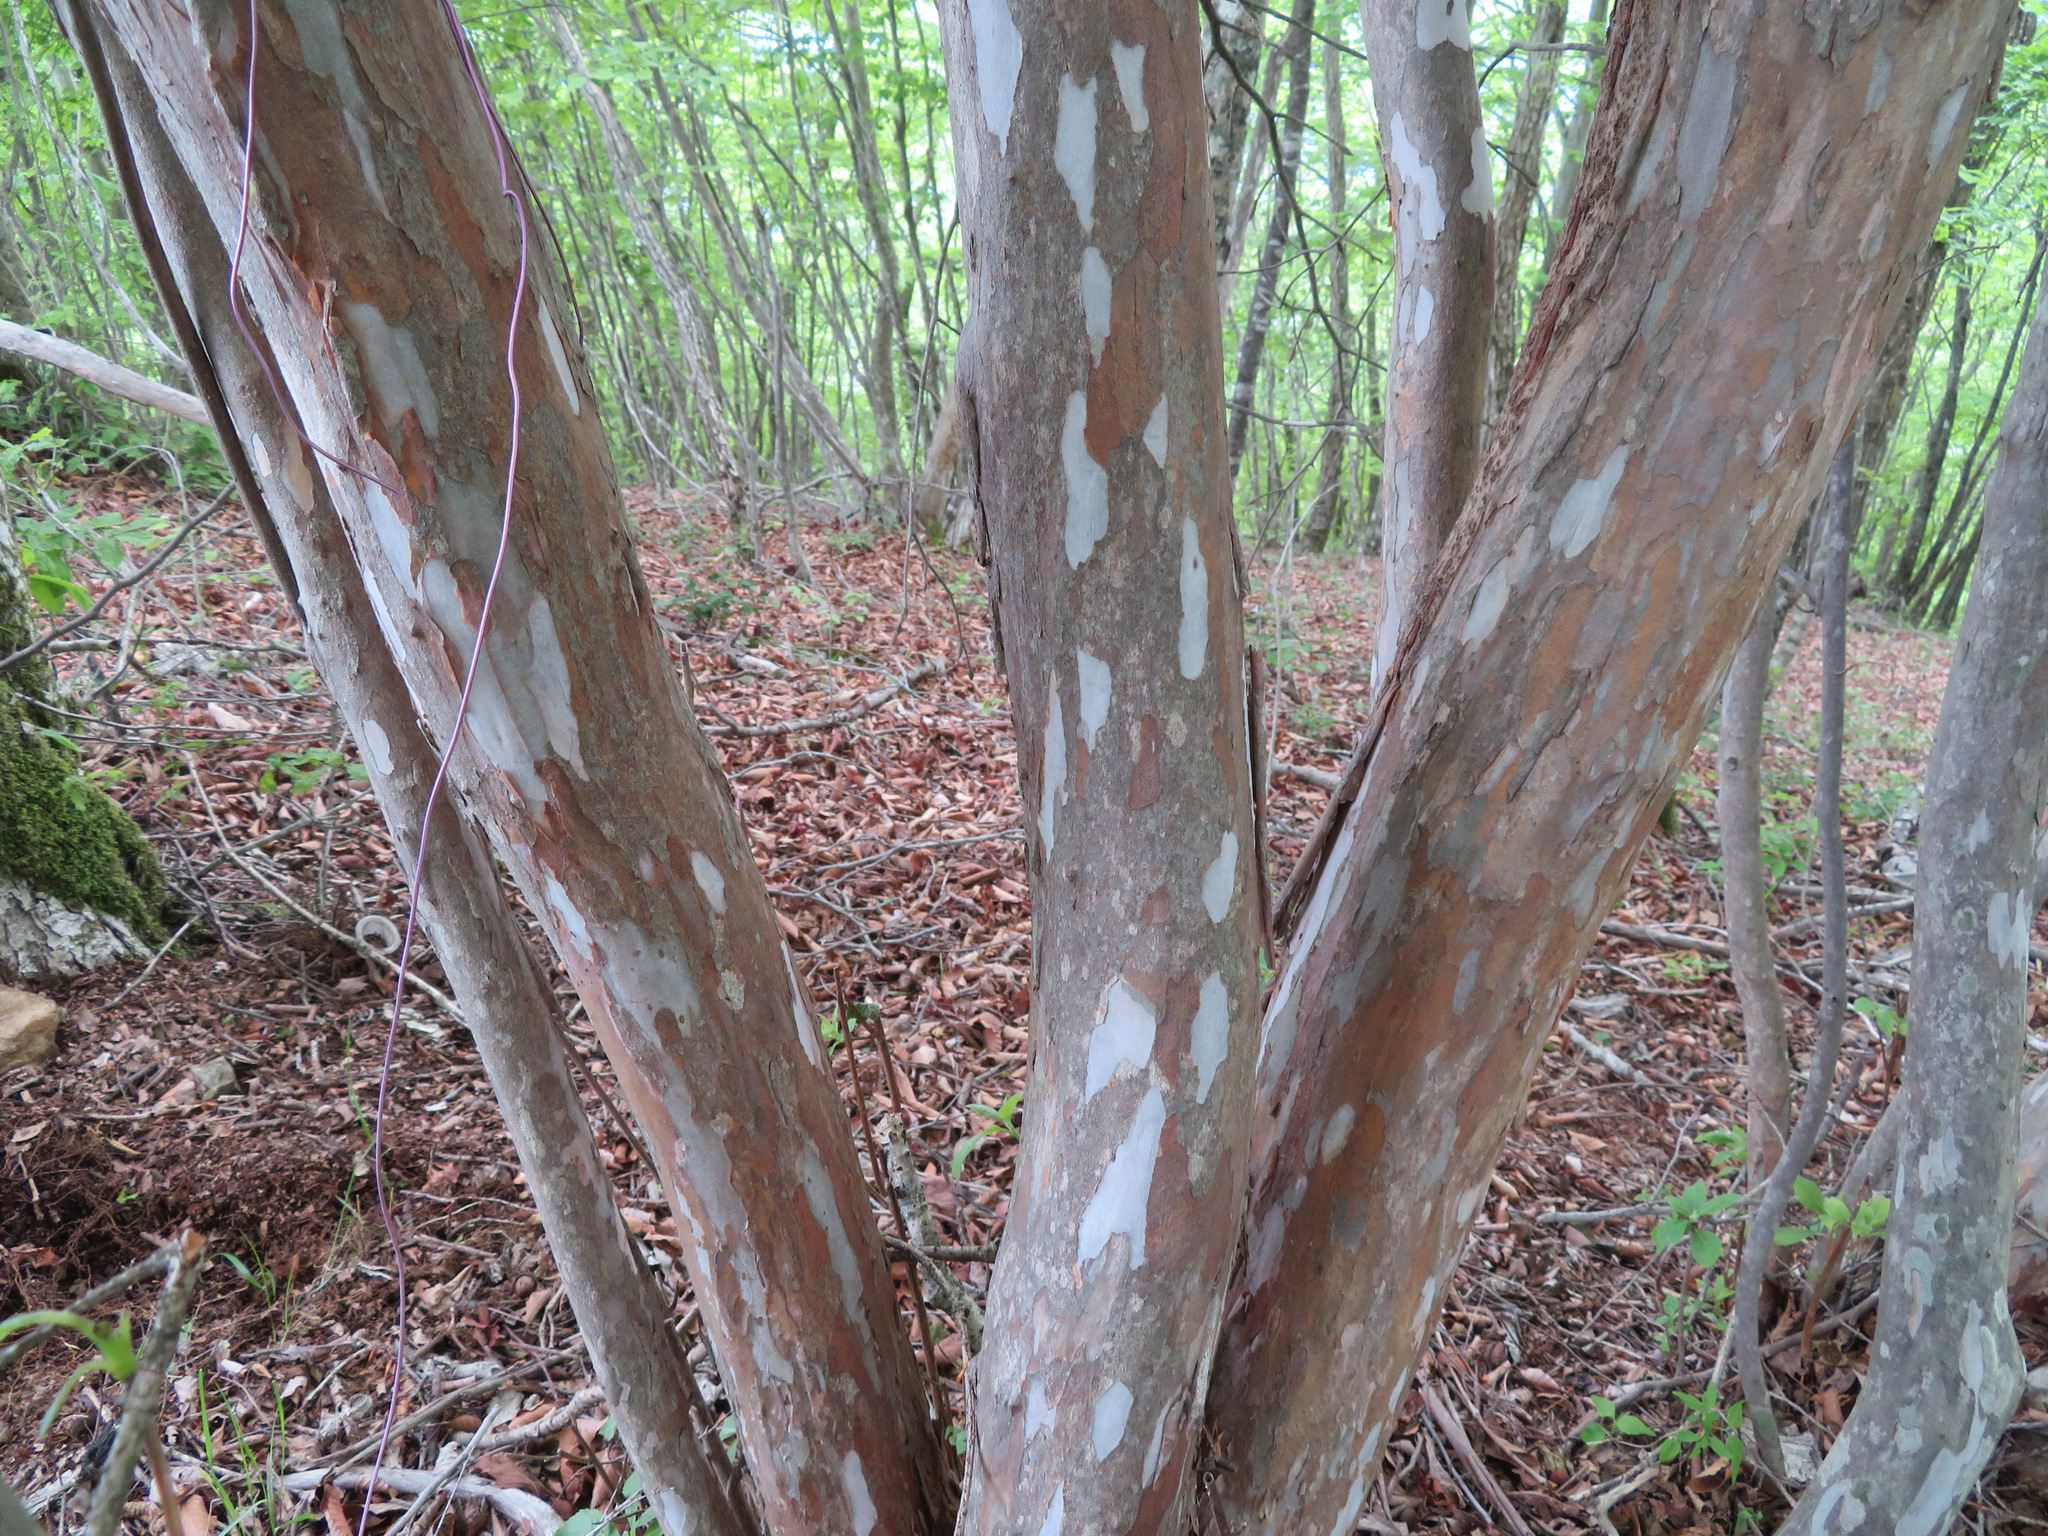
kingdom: Plantae
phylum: Tracheophyta
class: Magnoliopsida
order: Ericales
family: Clethraceae
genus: Clethra
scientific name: Clethra barbinervis
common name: Japanese clethra
